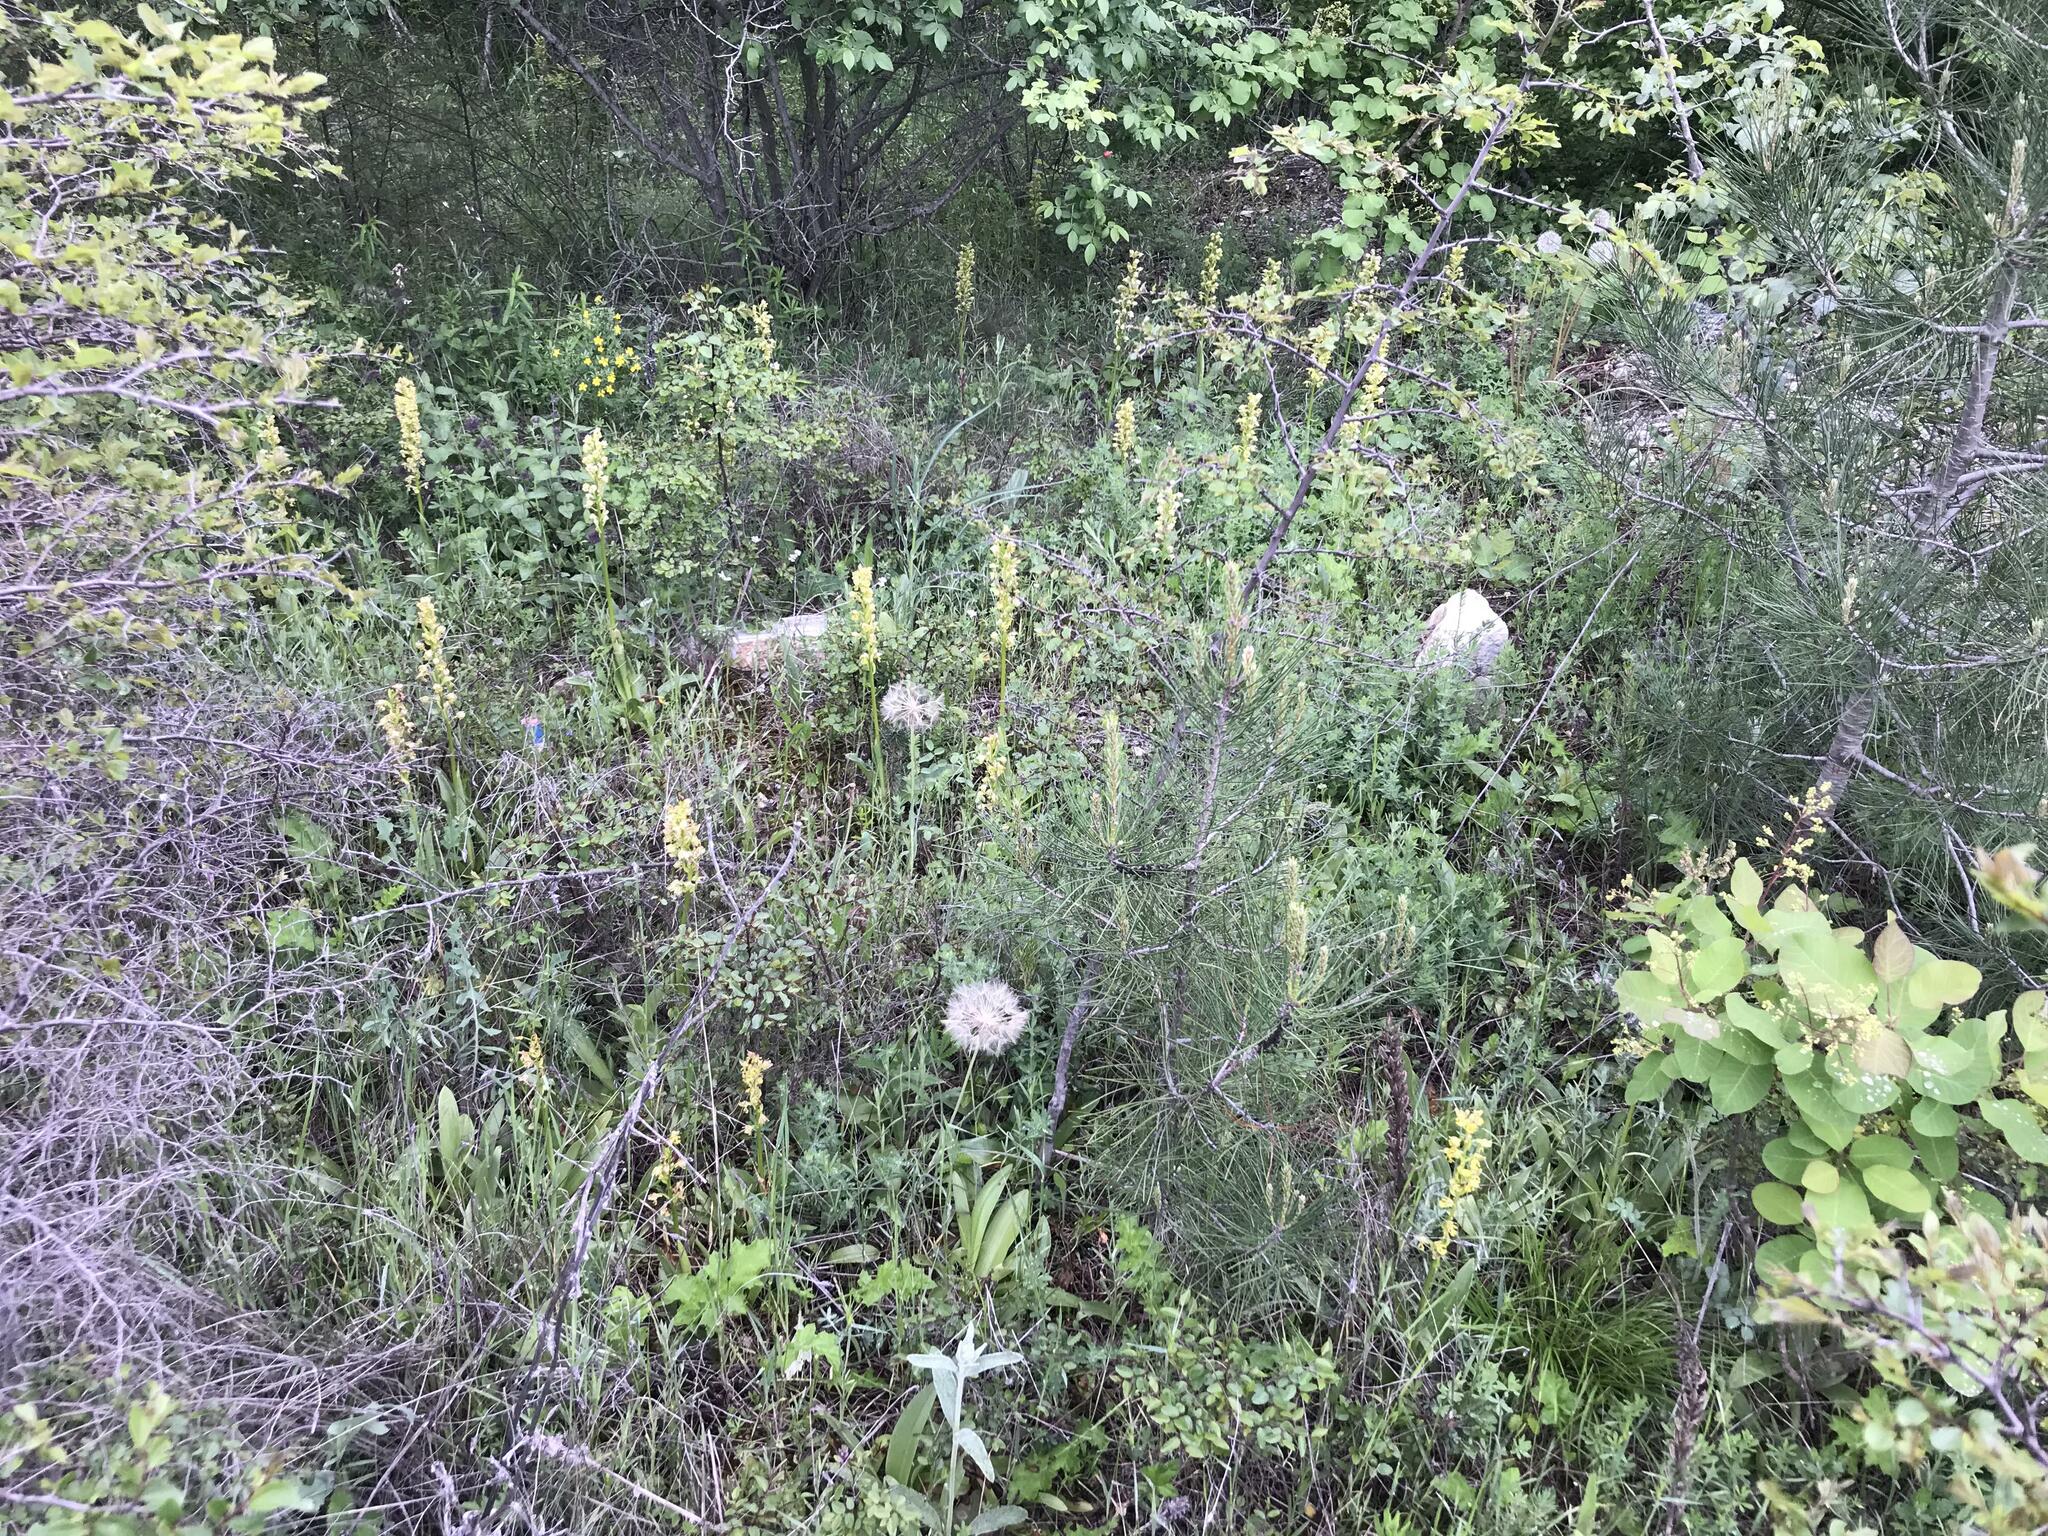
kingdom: Plantae
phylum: Tracheophyta
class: Liliopsida
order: Asparagales
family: Orchidaceae
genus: Orchis
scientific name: Orchis punctulata
